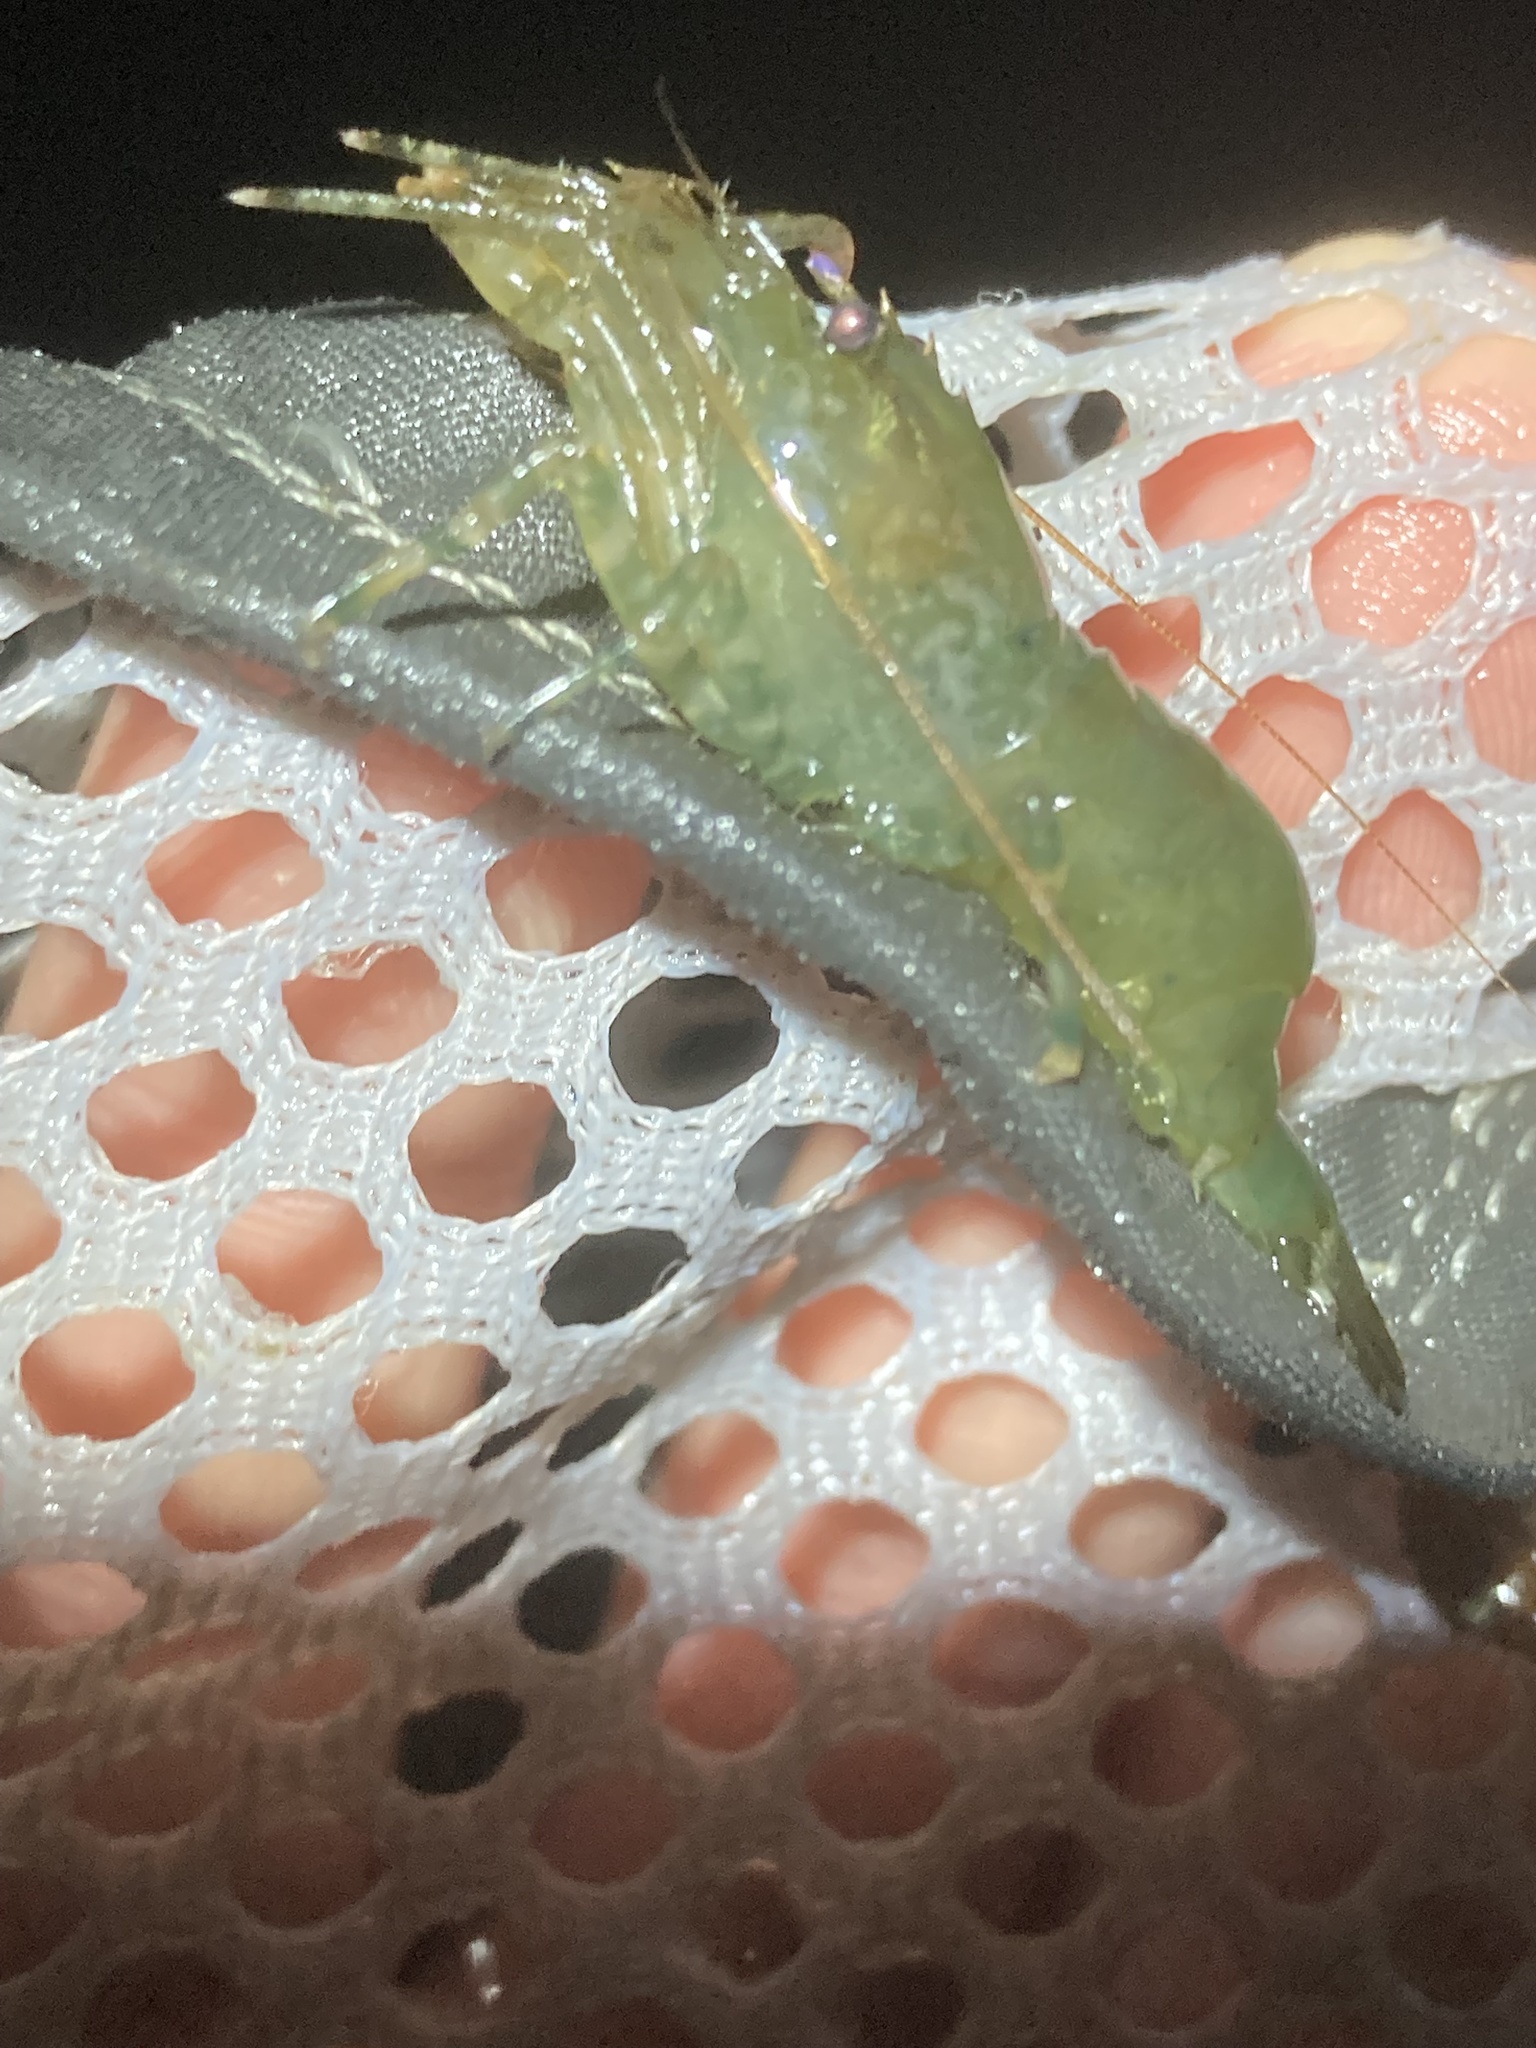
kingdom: Animalia
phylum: Arthropoda
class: Malacostraca
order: Decapoda
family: Thoridae
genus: Heptacarpus
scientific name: Heptacarpus brevirostris
